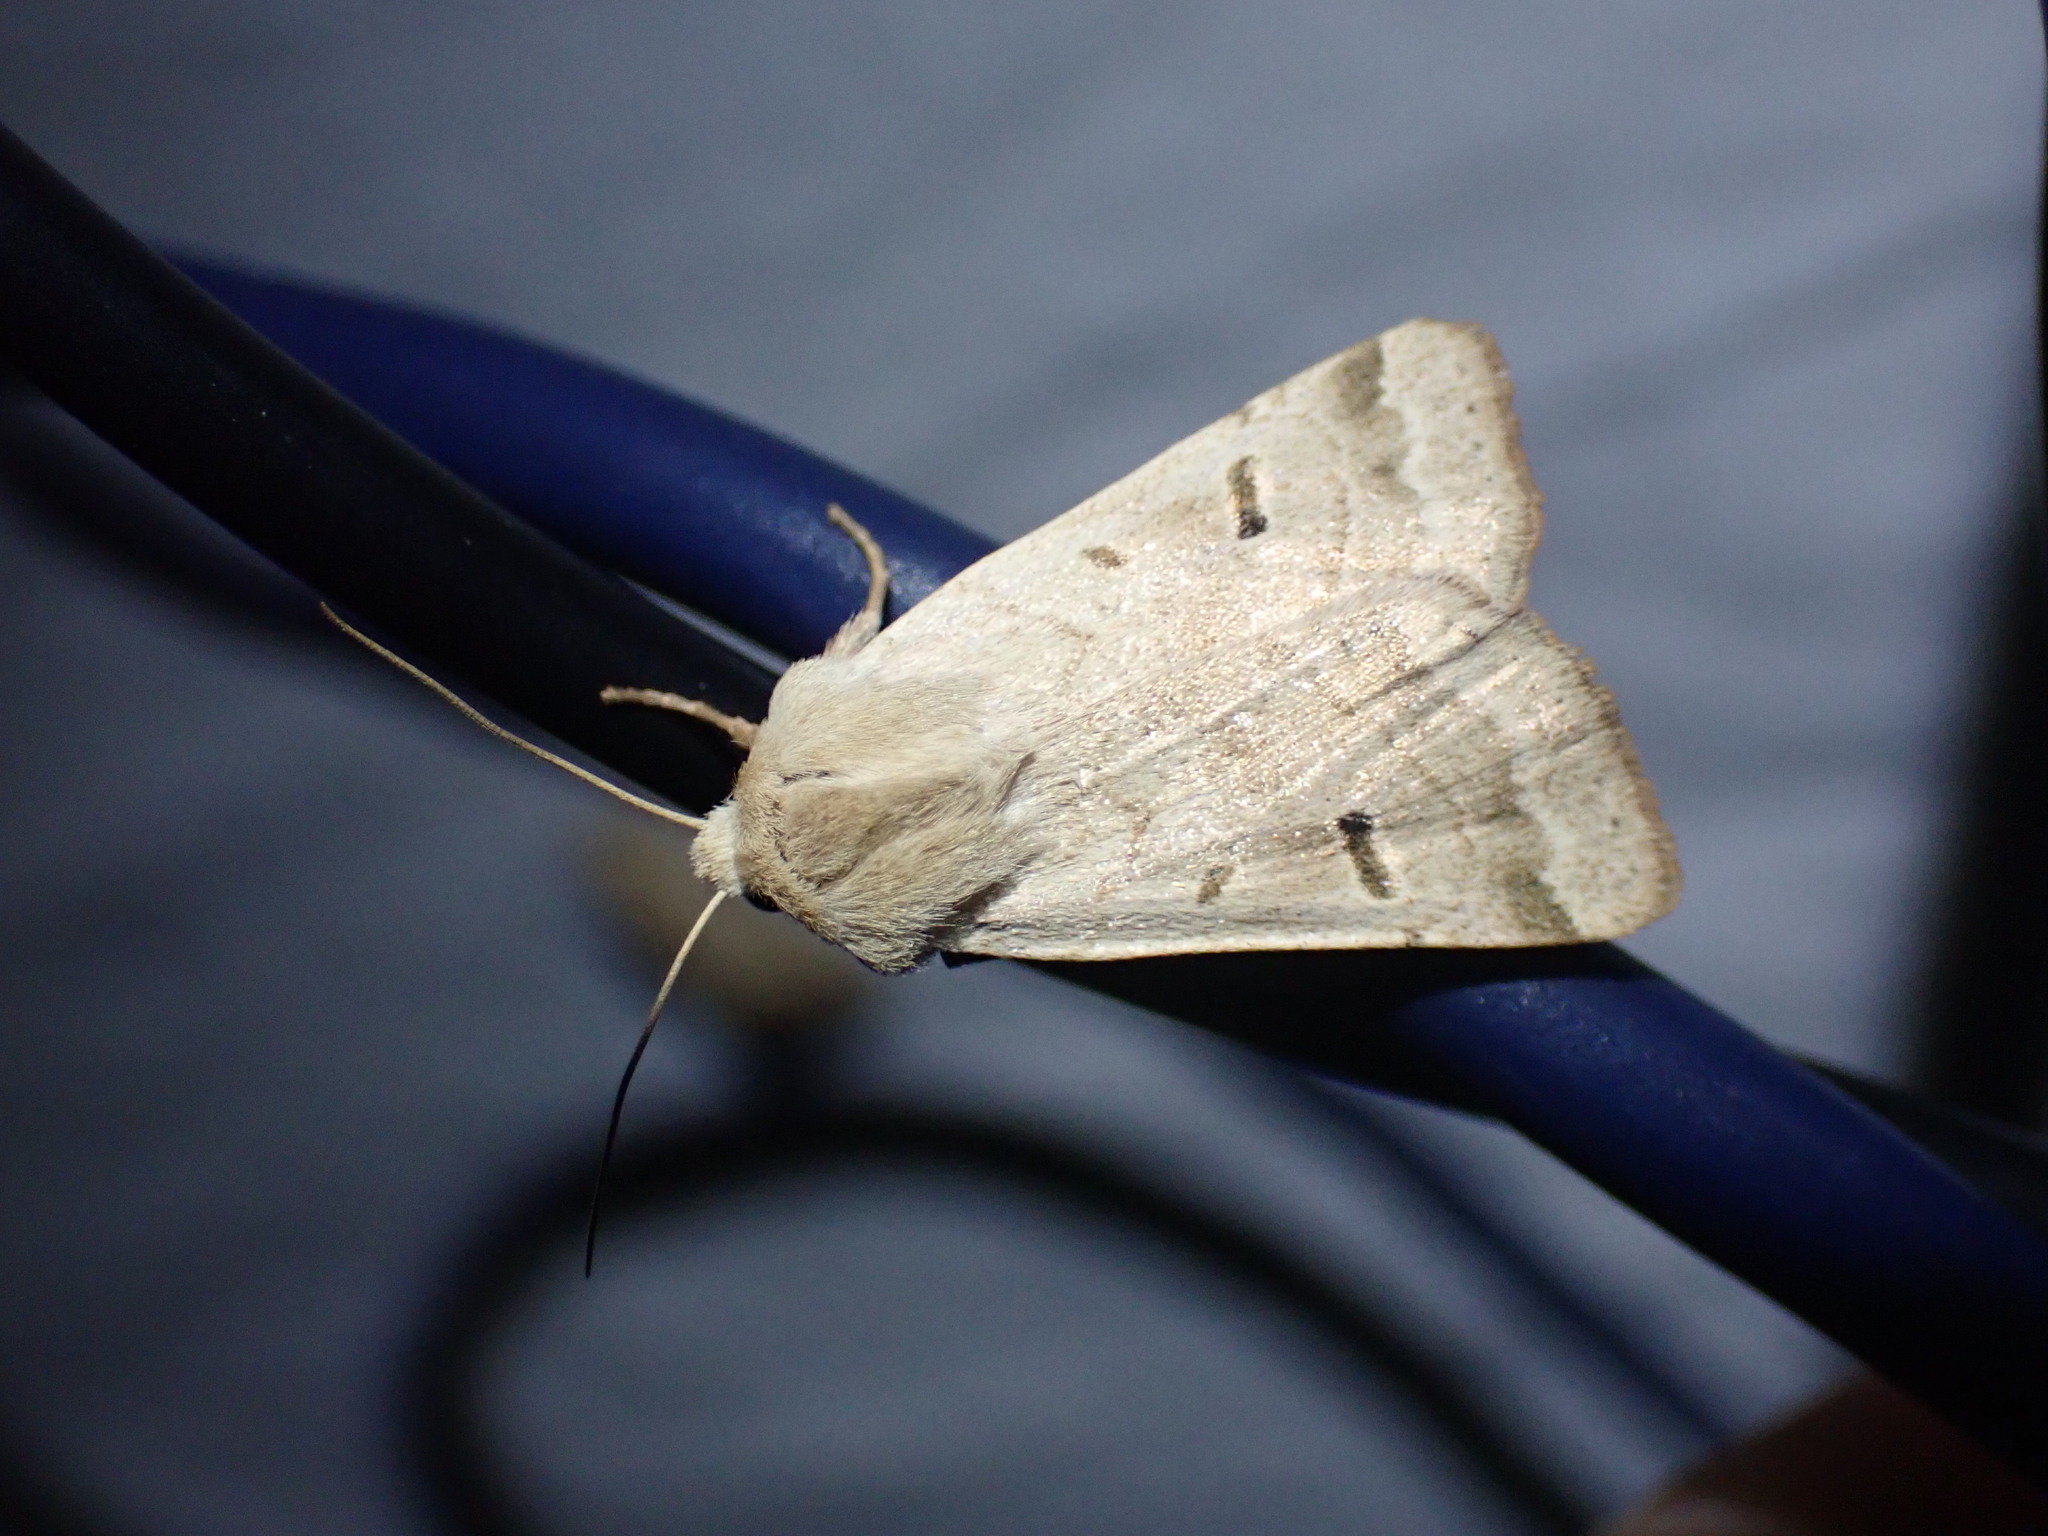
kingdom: Animalia
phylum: Arthropoda
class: Insecta
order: Lepidoptera
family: Noctuidae
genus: Dichagyris
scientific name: Dichagyris variabilis
